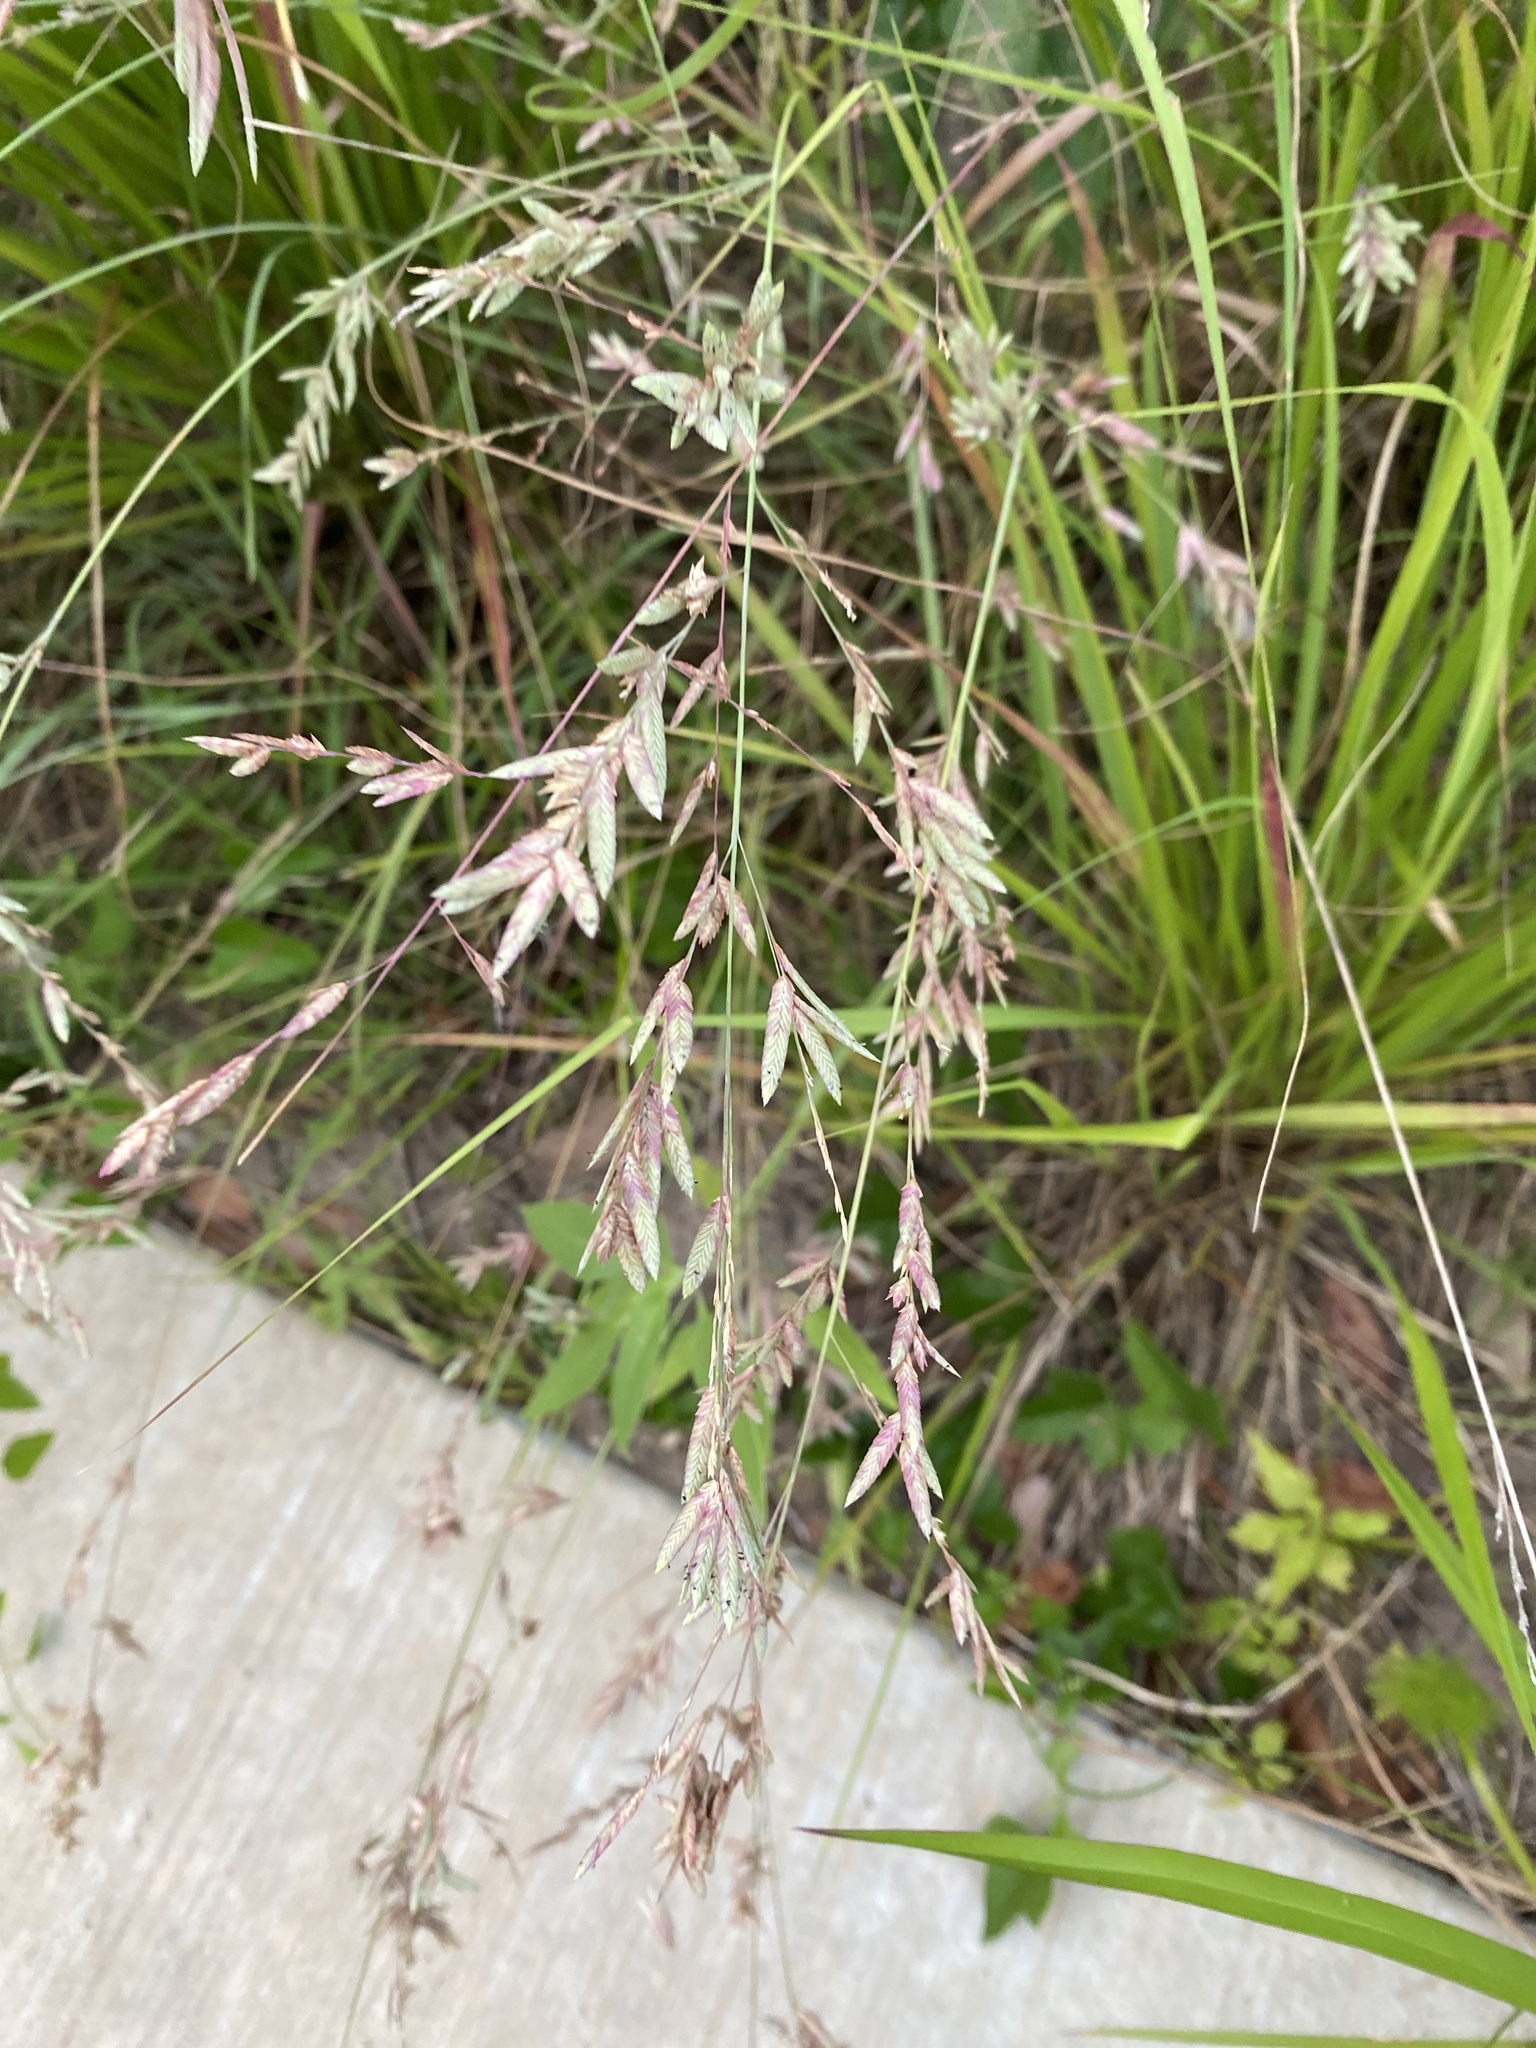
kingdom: Plantae
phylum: Tracheophyta
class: Liliopsida
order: Poales
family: Poaceae
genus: Eragrostis
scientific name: Eragrostis secundiflora
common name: Red love grass
